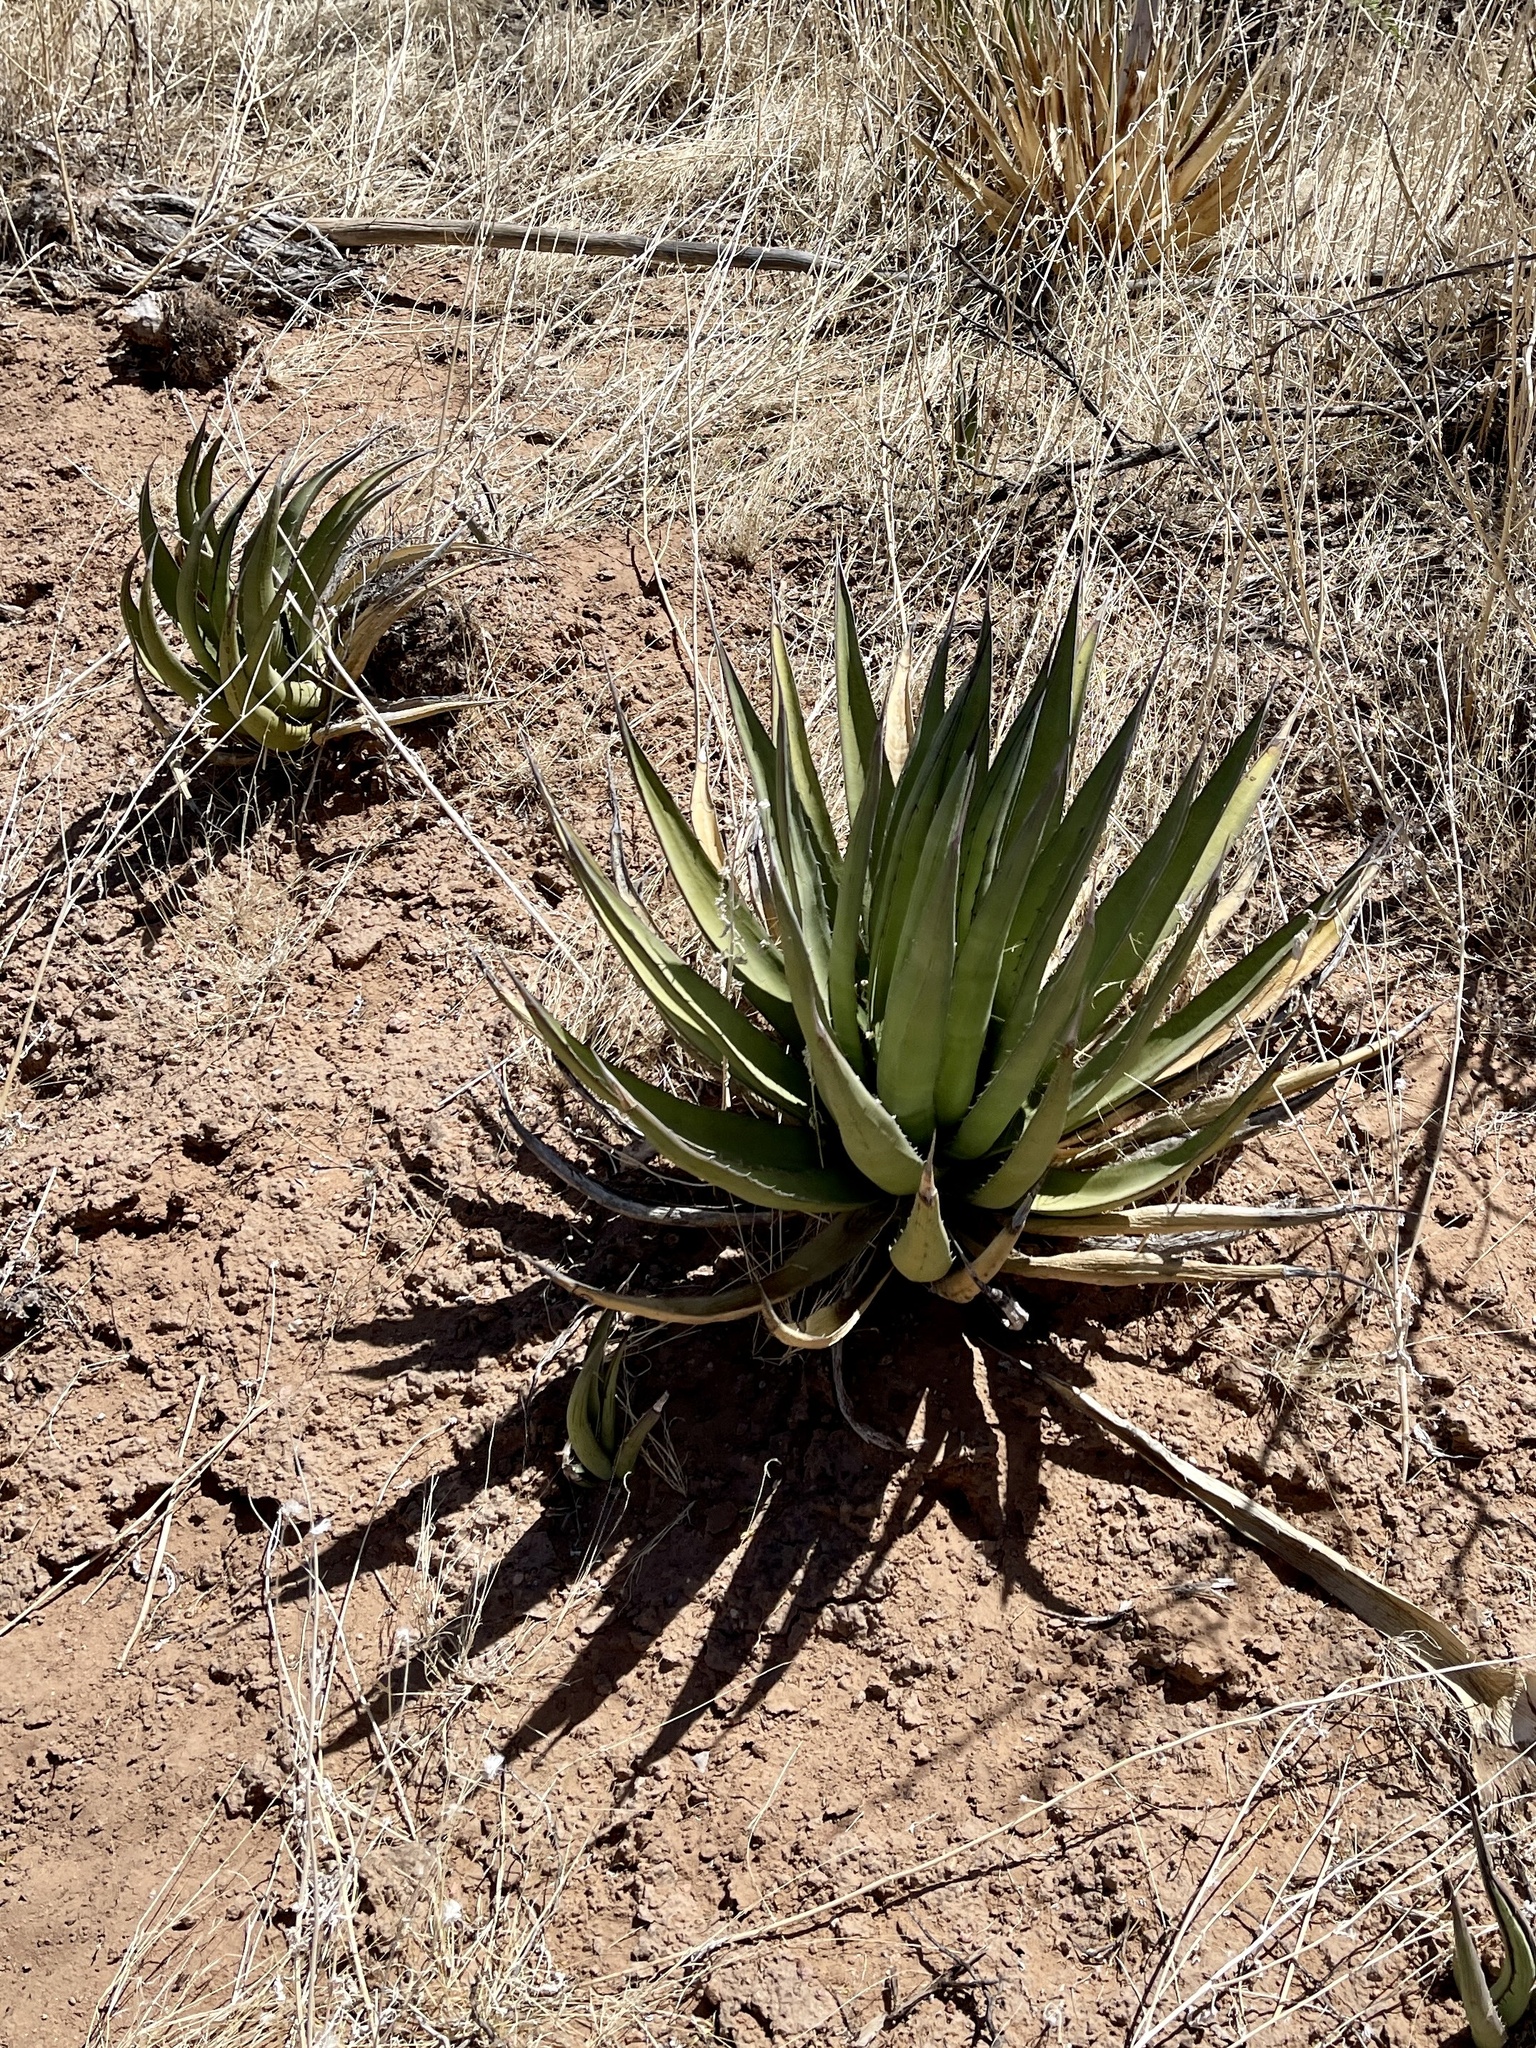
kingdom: Plantae
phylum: Tracheophyta
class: Liliopsida
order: Asparagales
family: Asparagaceae
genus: Agave
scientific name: Agave lechuguilla
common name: Lecheguilla agave
